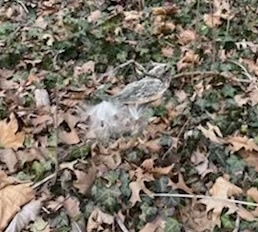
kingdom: Plantae
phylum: Tracheophyta
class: Magnoliopsida
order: Gentianales
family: Apocynaceae
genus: Asclepias
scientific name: Asclepias syriaca
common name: Common milkweed
